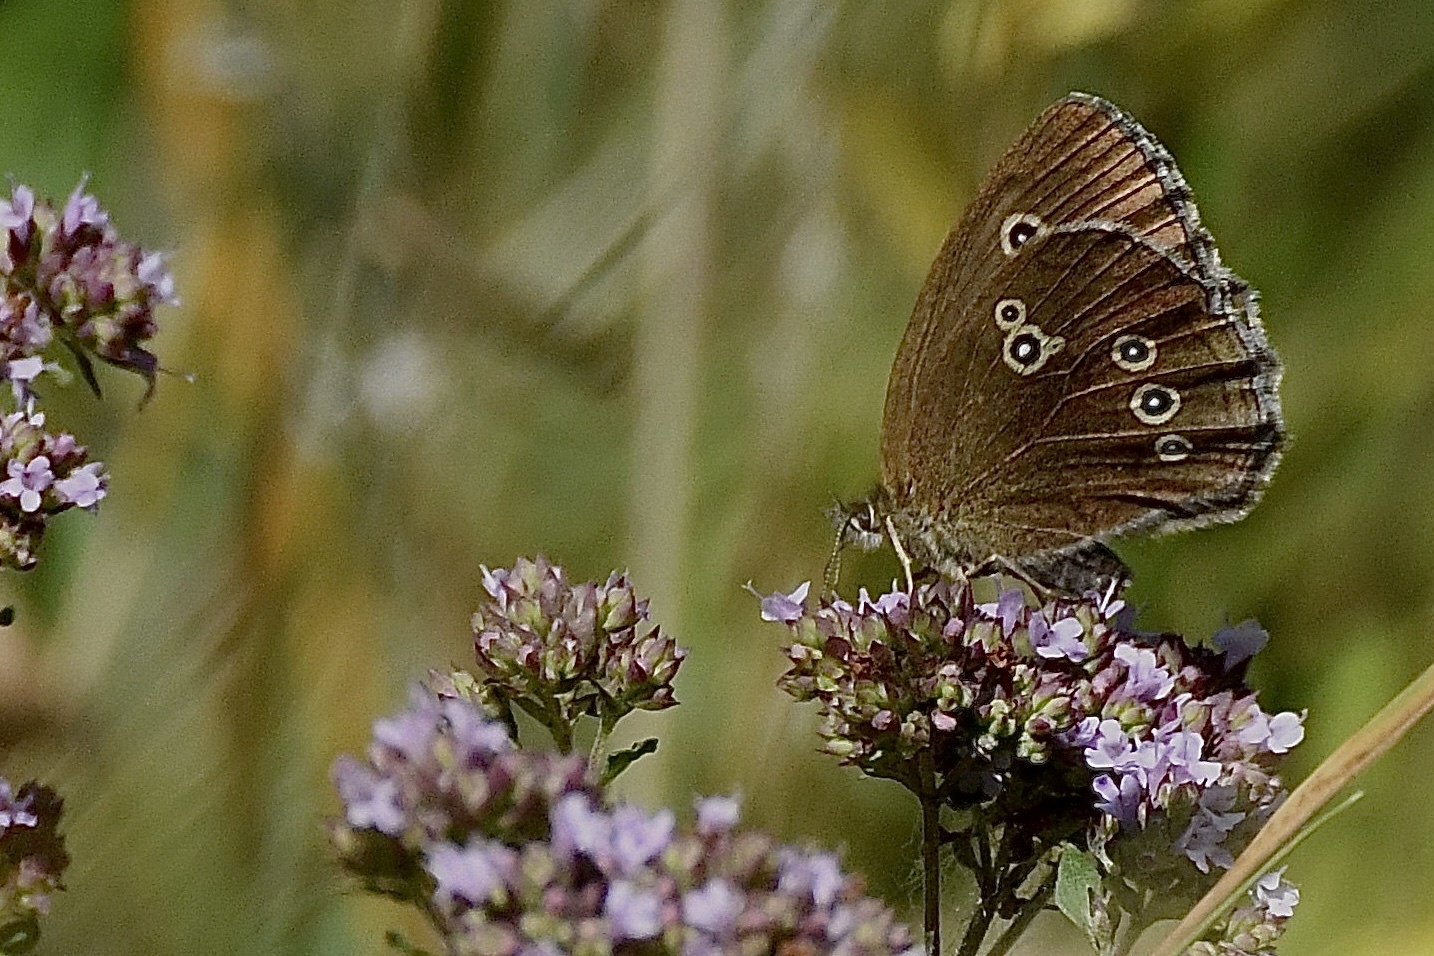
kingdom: Animalia
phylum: Arthropoda
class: Insecta
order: Lepidoptera
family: Nymphalidae
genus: Aphantopus
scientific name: Aphantopus hyperantus
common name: Ringlet
